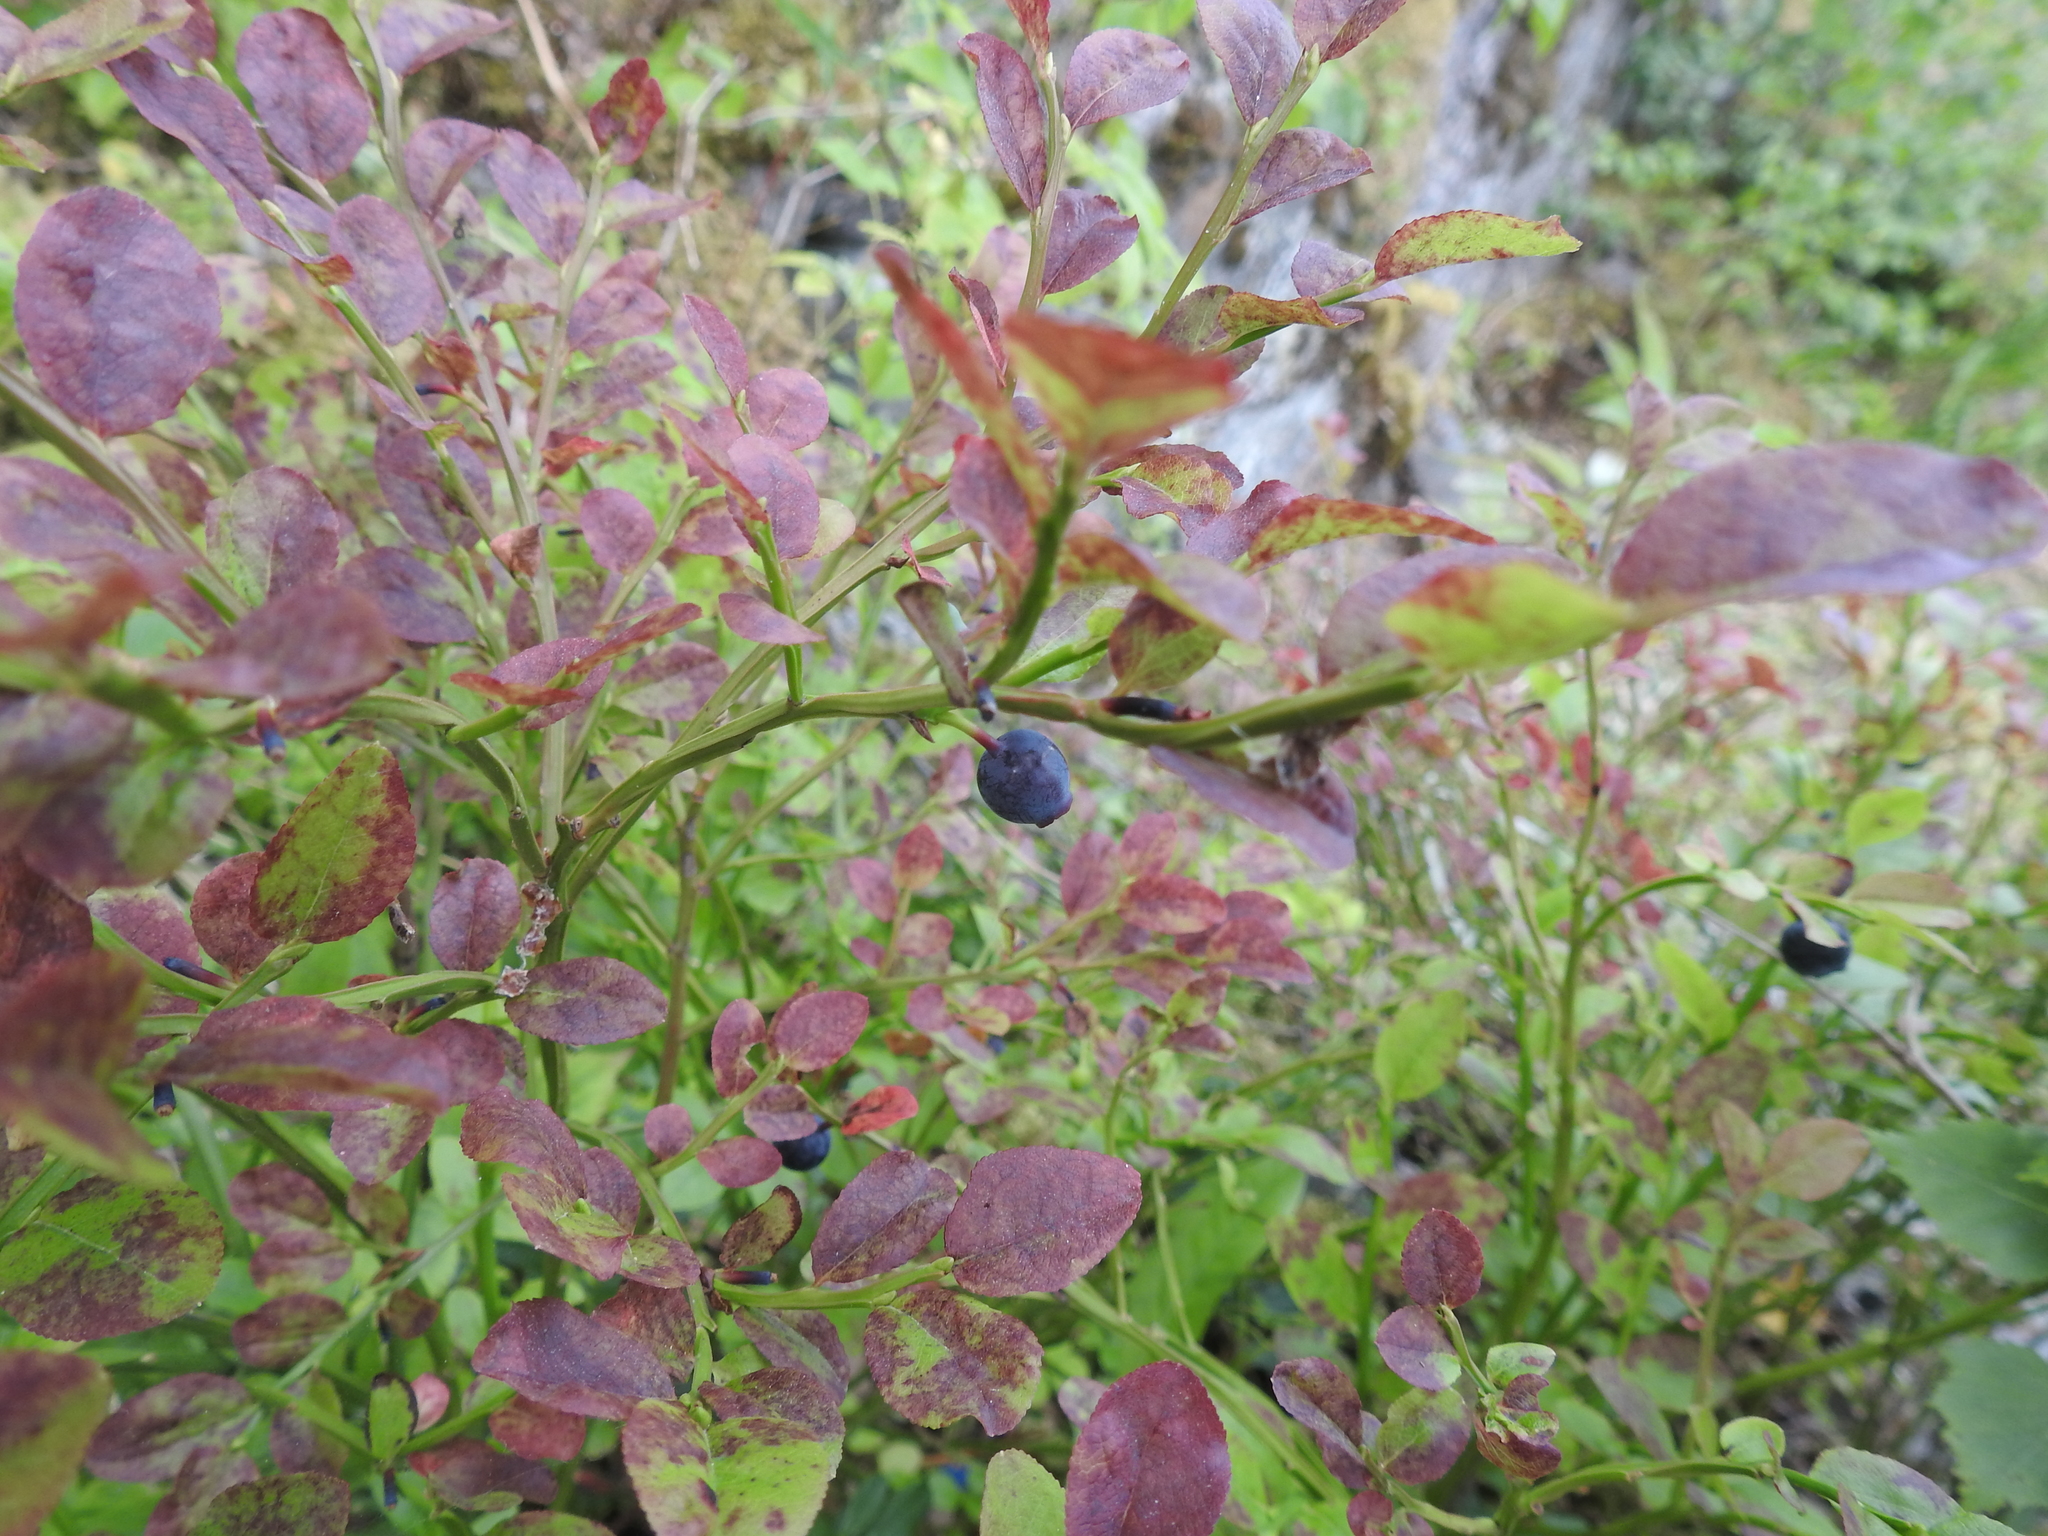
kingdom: Plantae
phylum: Tracheophyta
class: Magnoliopsida
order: Ericales
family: Ericaceae
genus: Vaccinium
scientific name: Vaccinium myrtillus
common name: Bilberry
